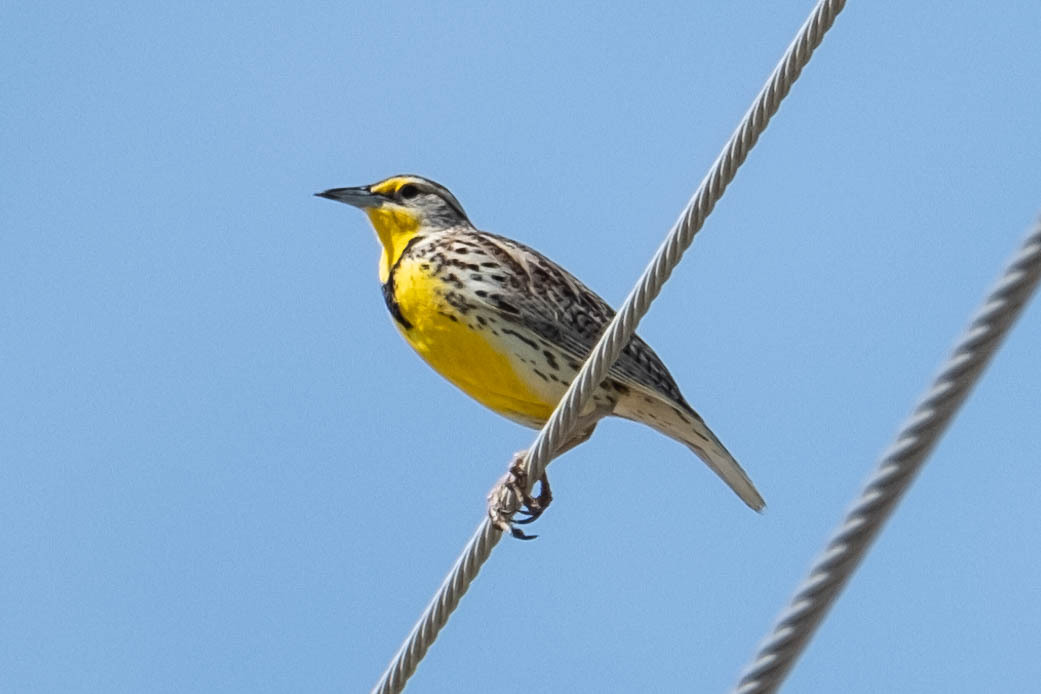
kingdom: Animalia
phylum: Chordata
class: Aves
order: Passeriformes
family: Icteridae
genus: Sturnella
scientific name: Sturnella neglecta
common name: Western meadowlark
